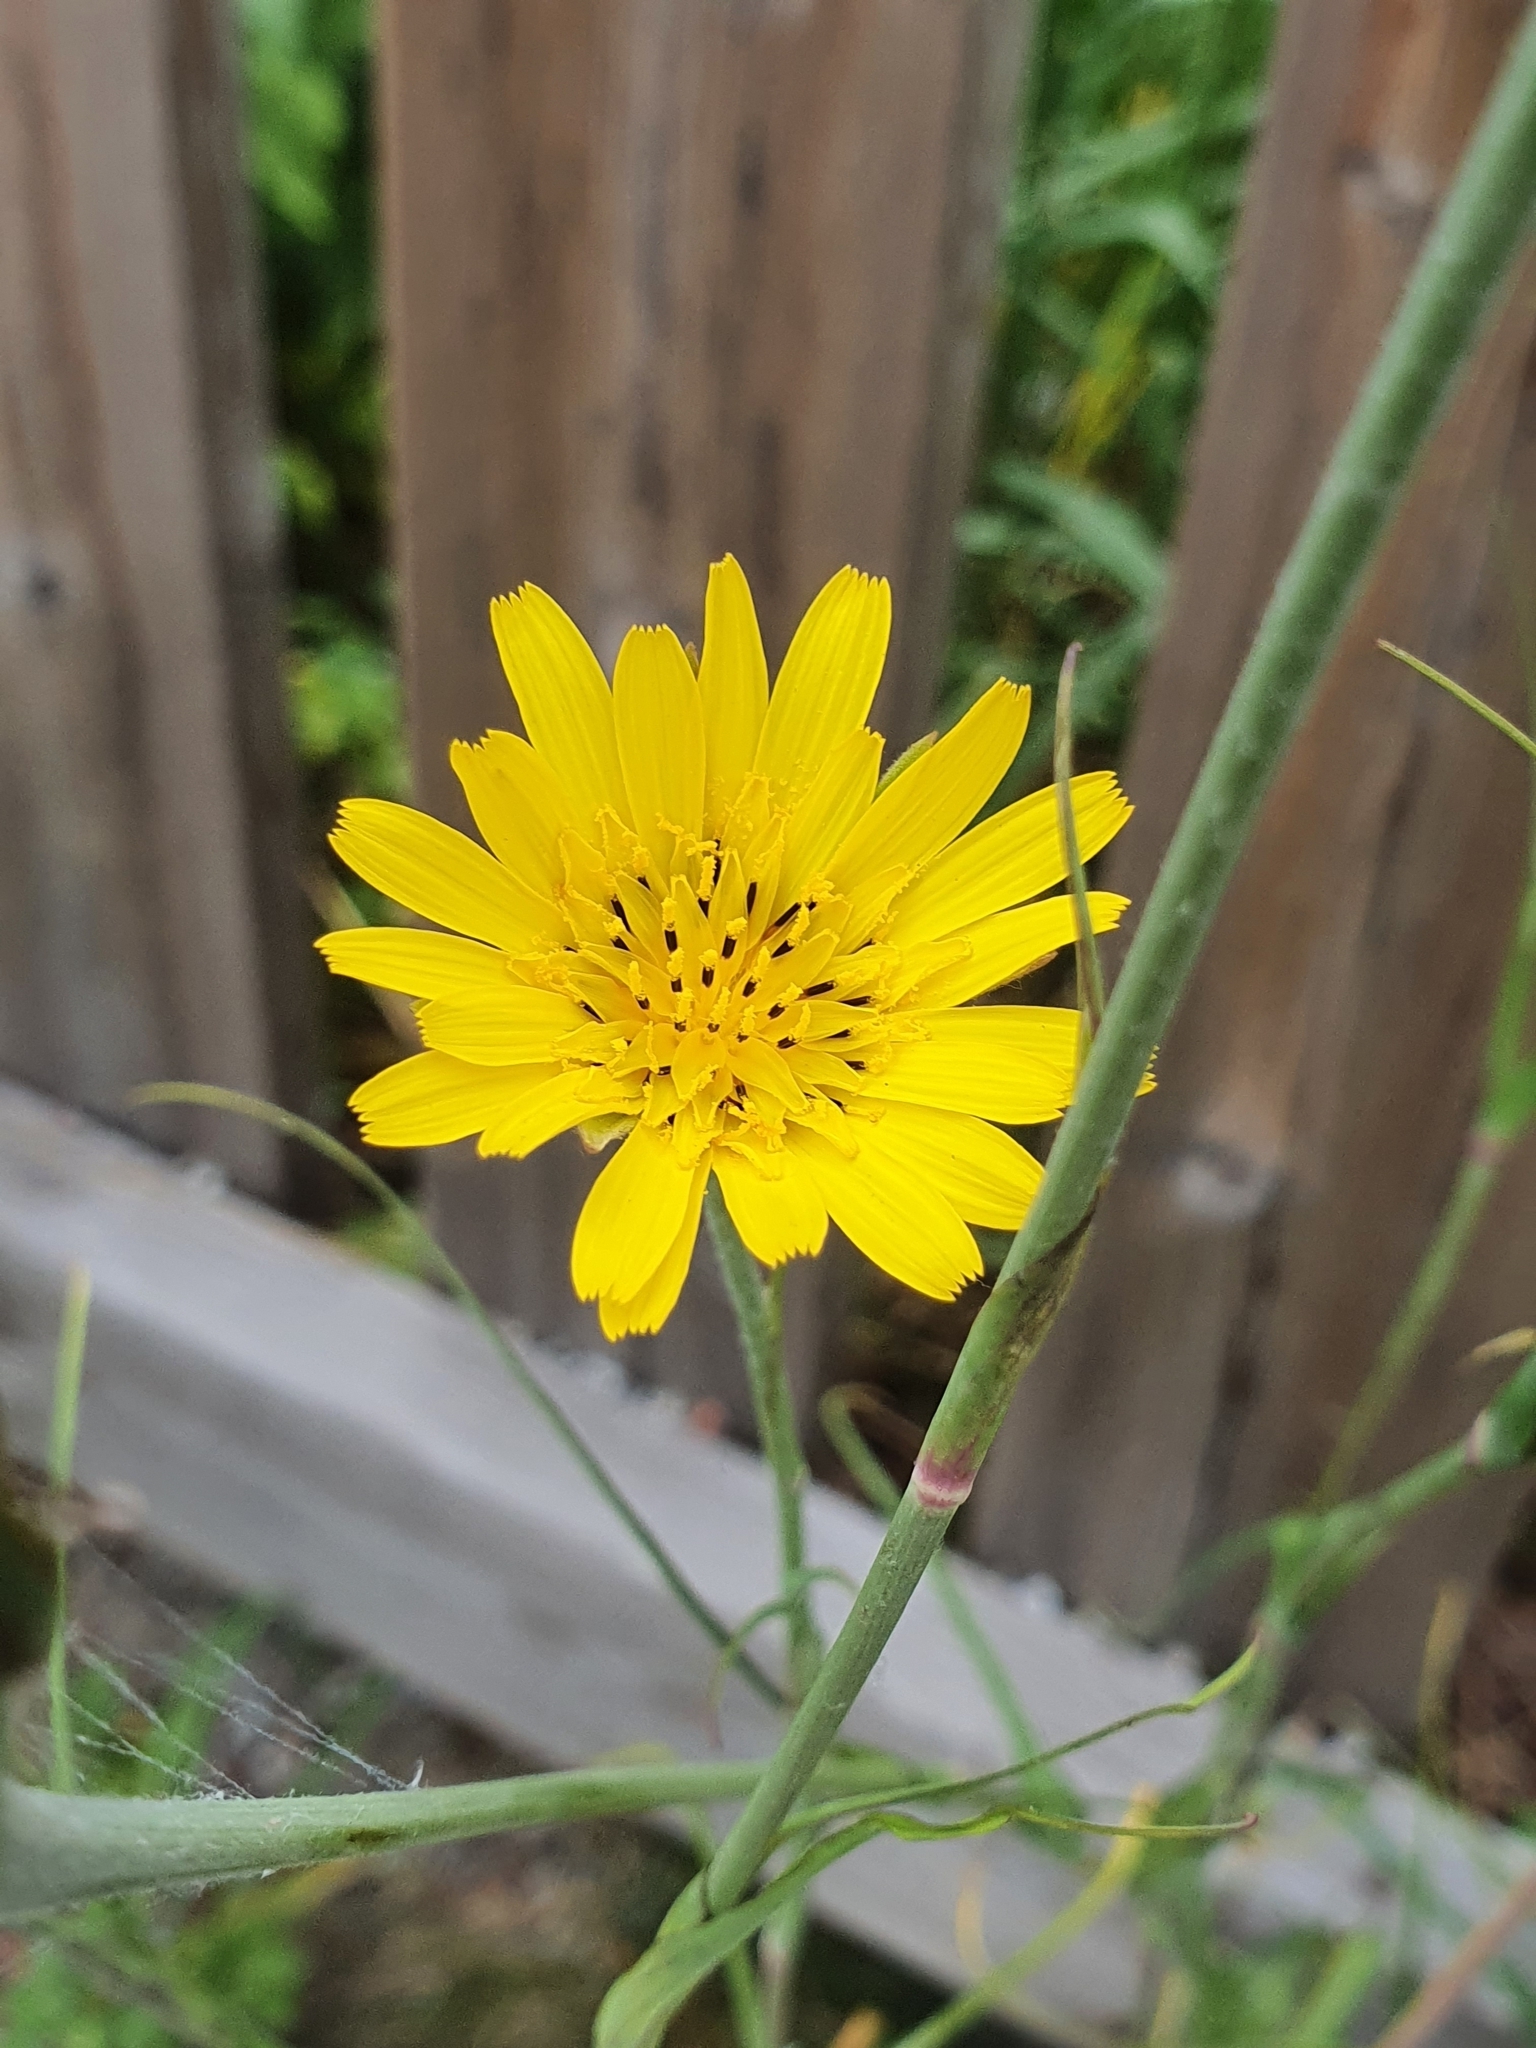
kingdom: Plantae
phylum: Tracheophyta
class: Magnoliopsida
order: Asterales
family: Asteraceae
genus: Tragopogon
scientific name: Tragopogon pratensis
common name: Goat's-beard
